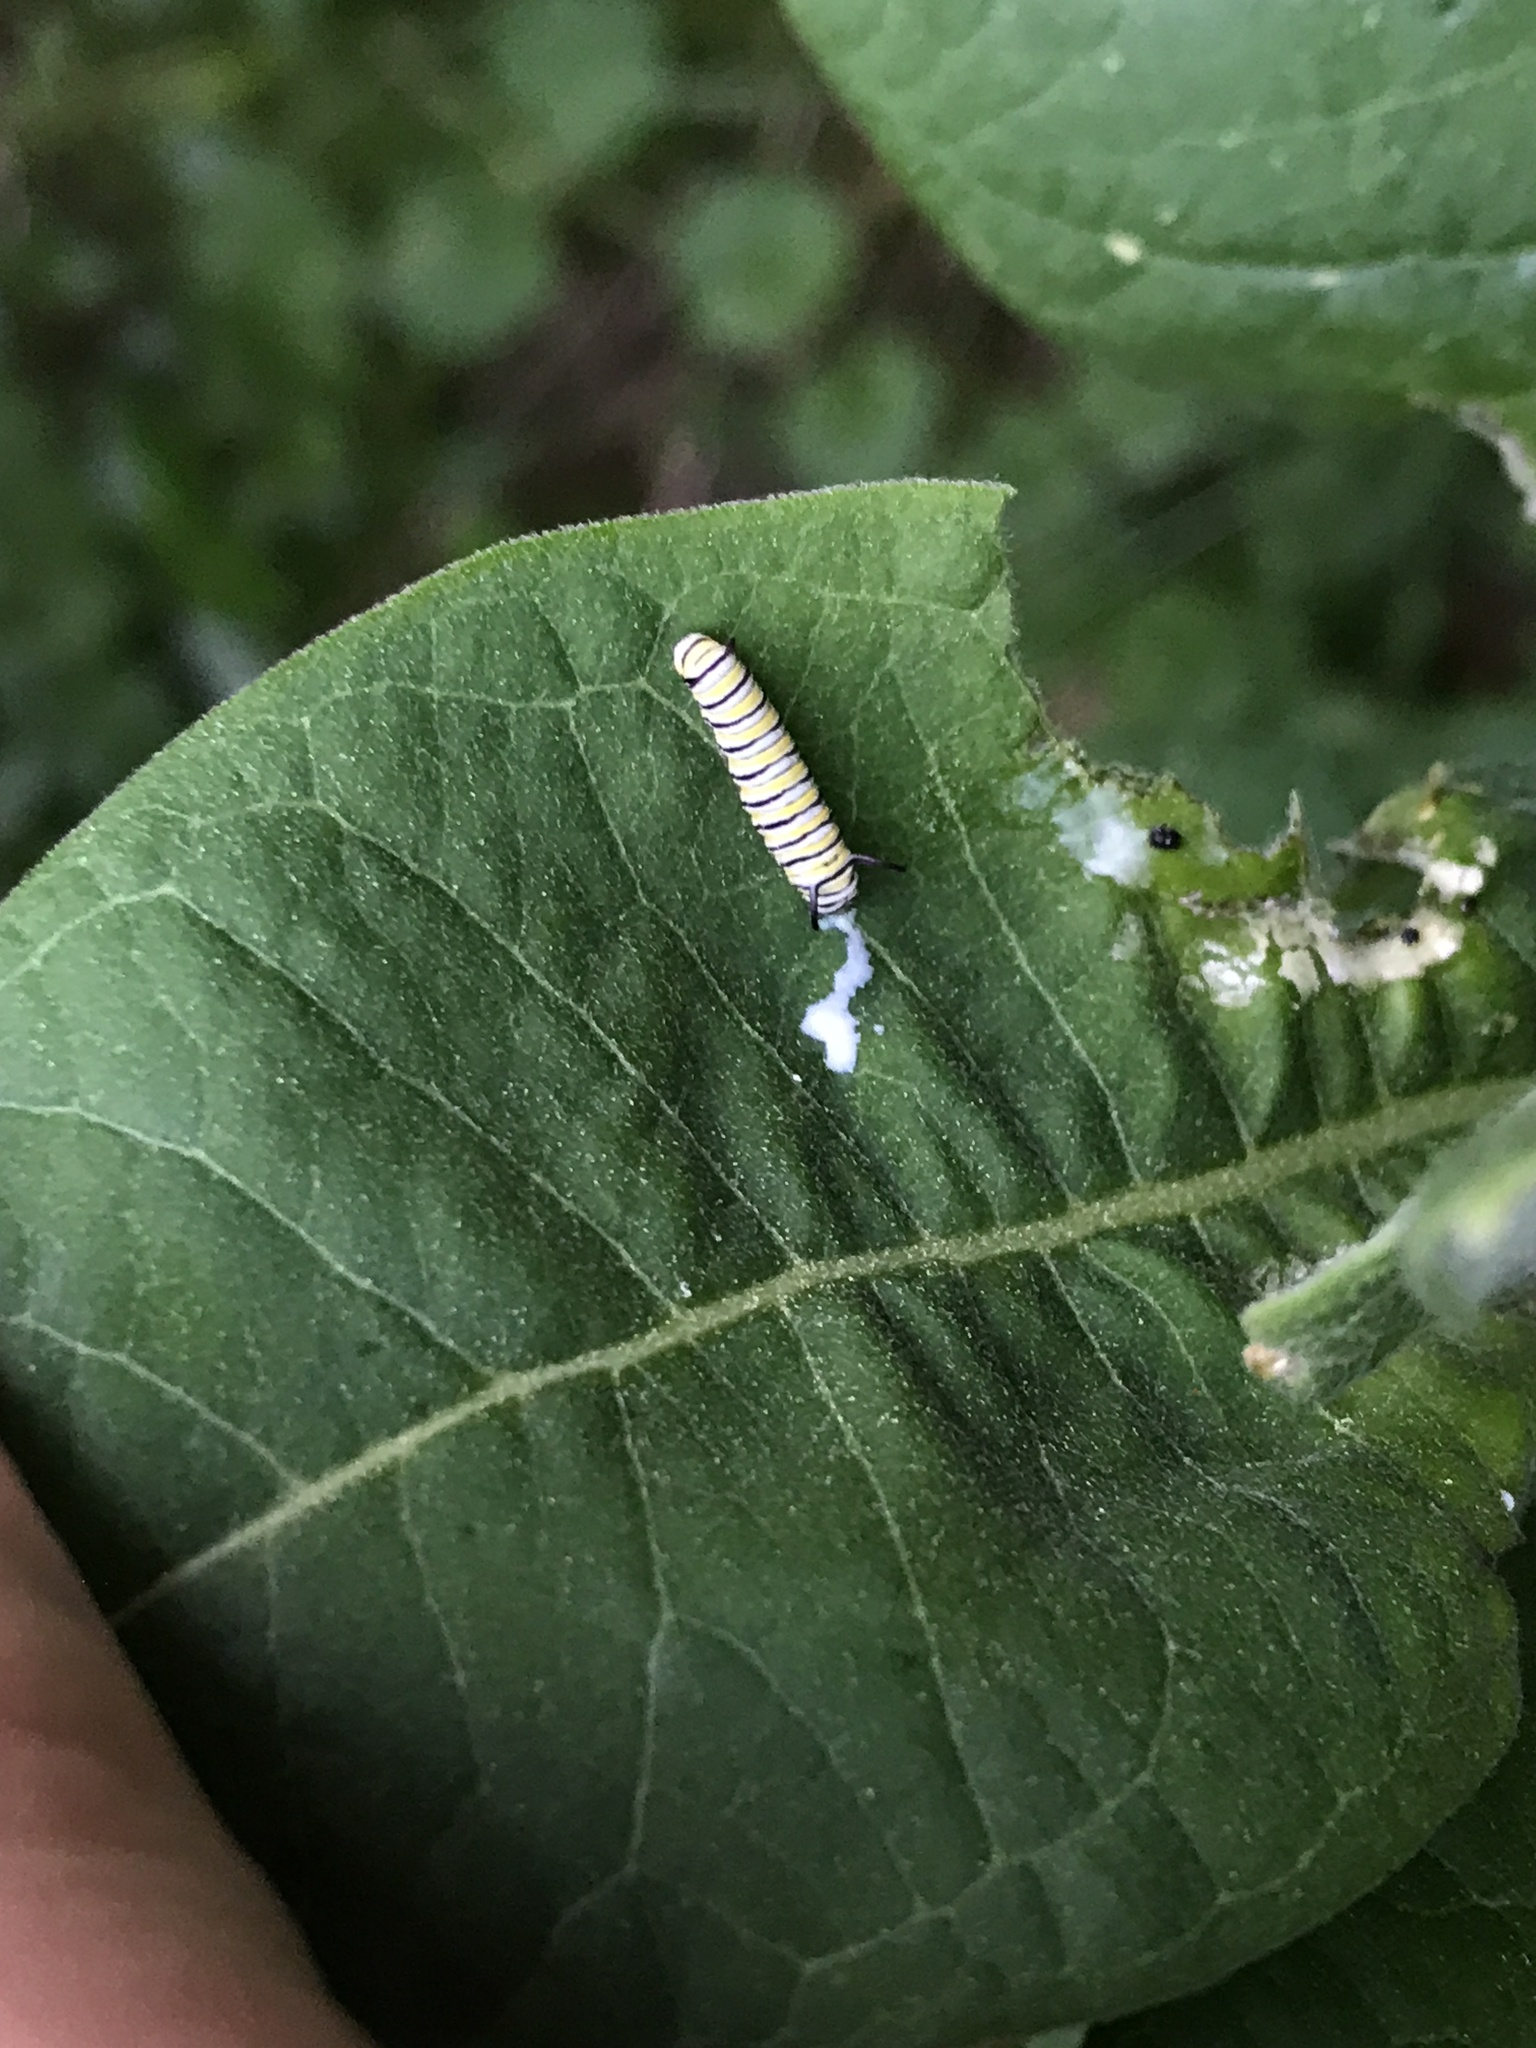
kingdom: Animalia
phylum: Arthropoda
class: Insecta
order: Lepidoptera
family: Nymphalidae
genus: Danaus
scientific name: Danaus plexippus
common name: Monarch
